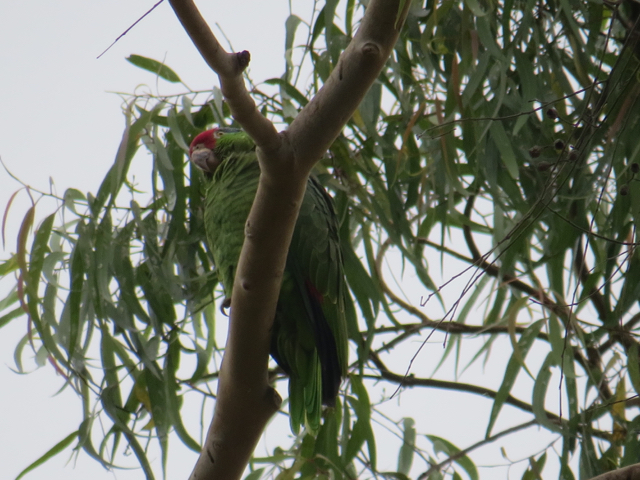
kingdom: Animalia
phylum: Chordata
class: Aves
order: Psittaciformes
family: Psittacidae
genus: Amazona
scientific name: Amazona viridigenalis
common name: Red-crowned amazon
